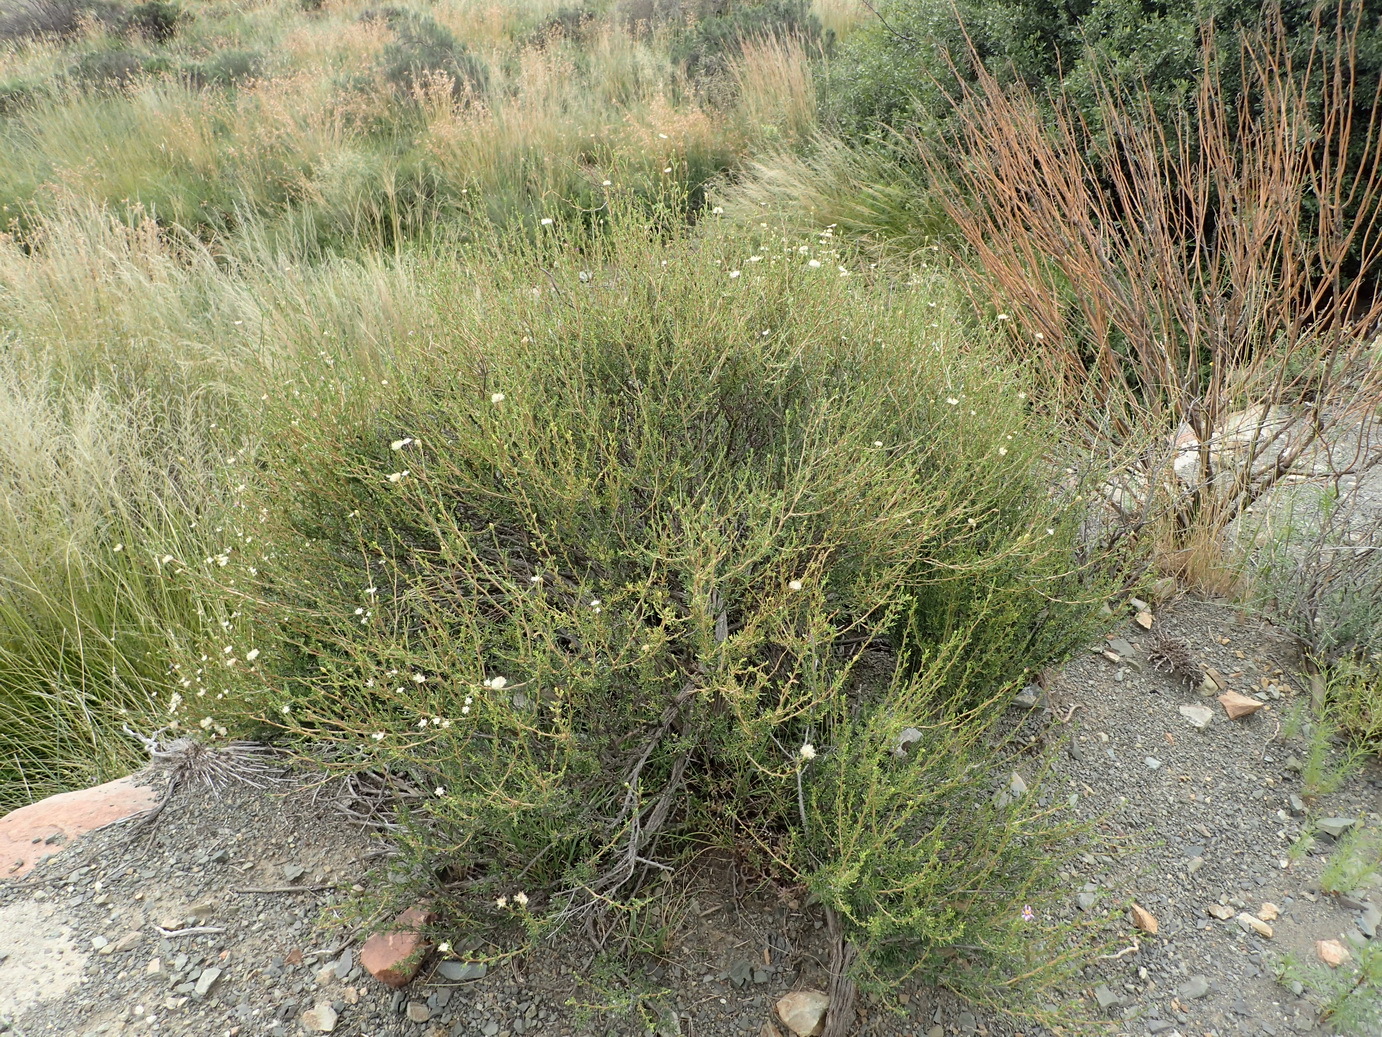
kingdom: Plantae
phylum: Tracheophyta
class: Magnoliopsida
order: Asterales
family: Asteraceae
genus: Felicia
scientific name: Felicia filifolia
